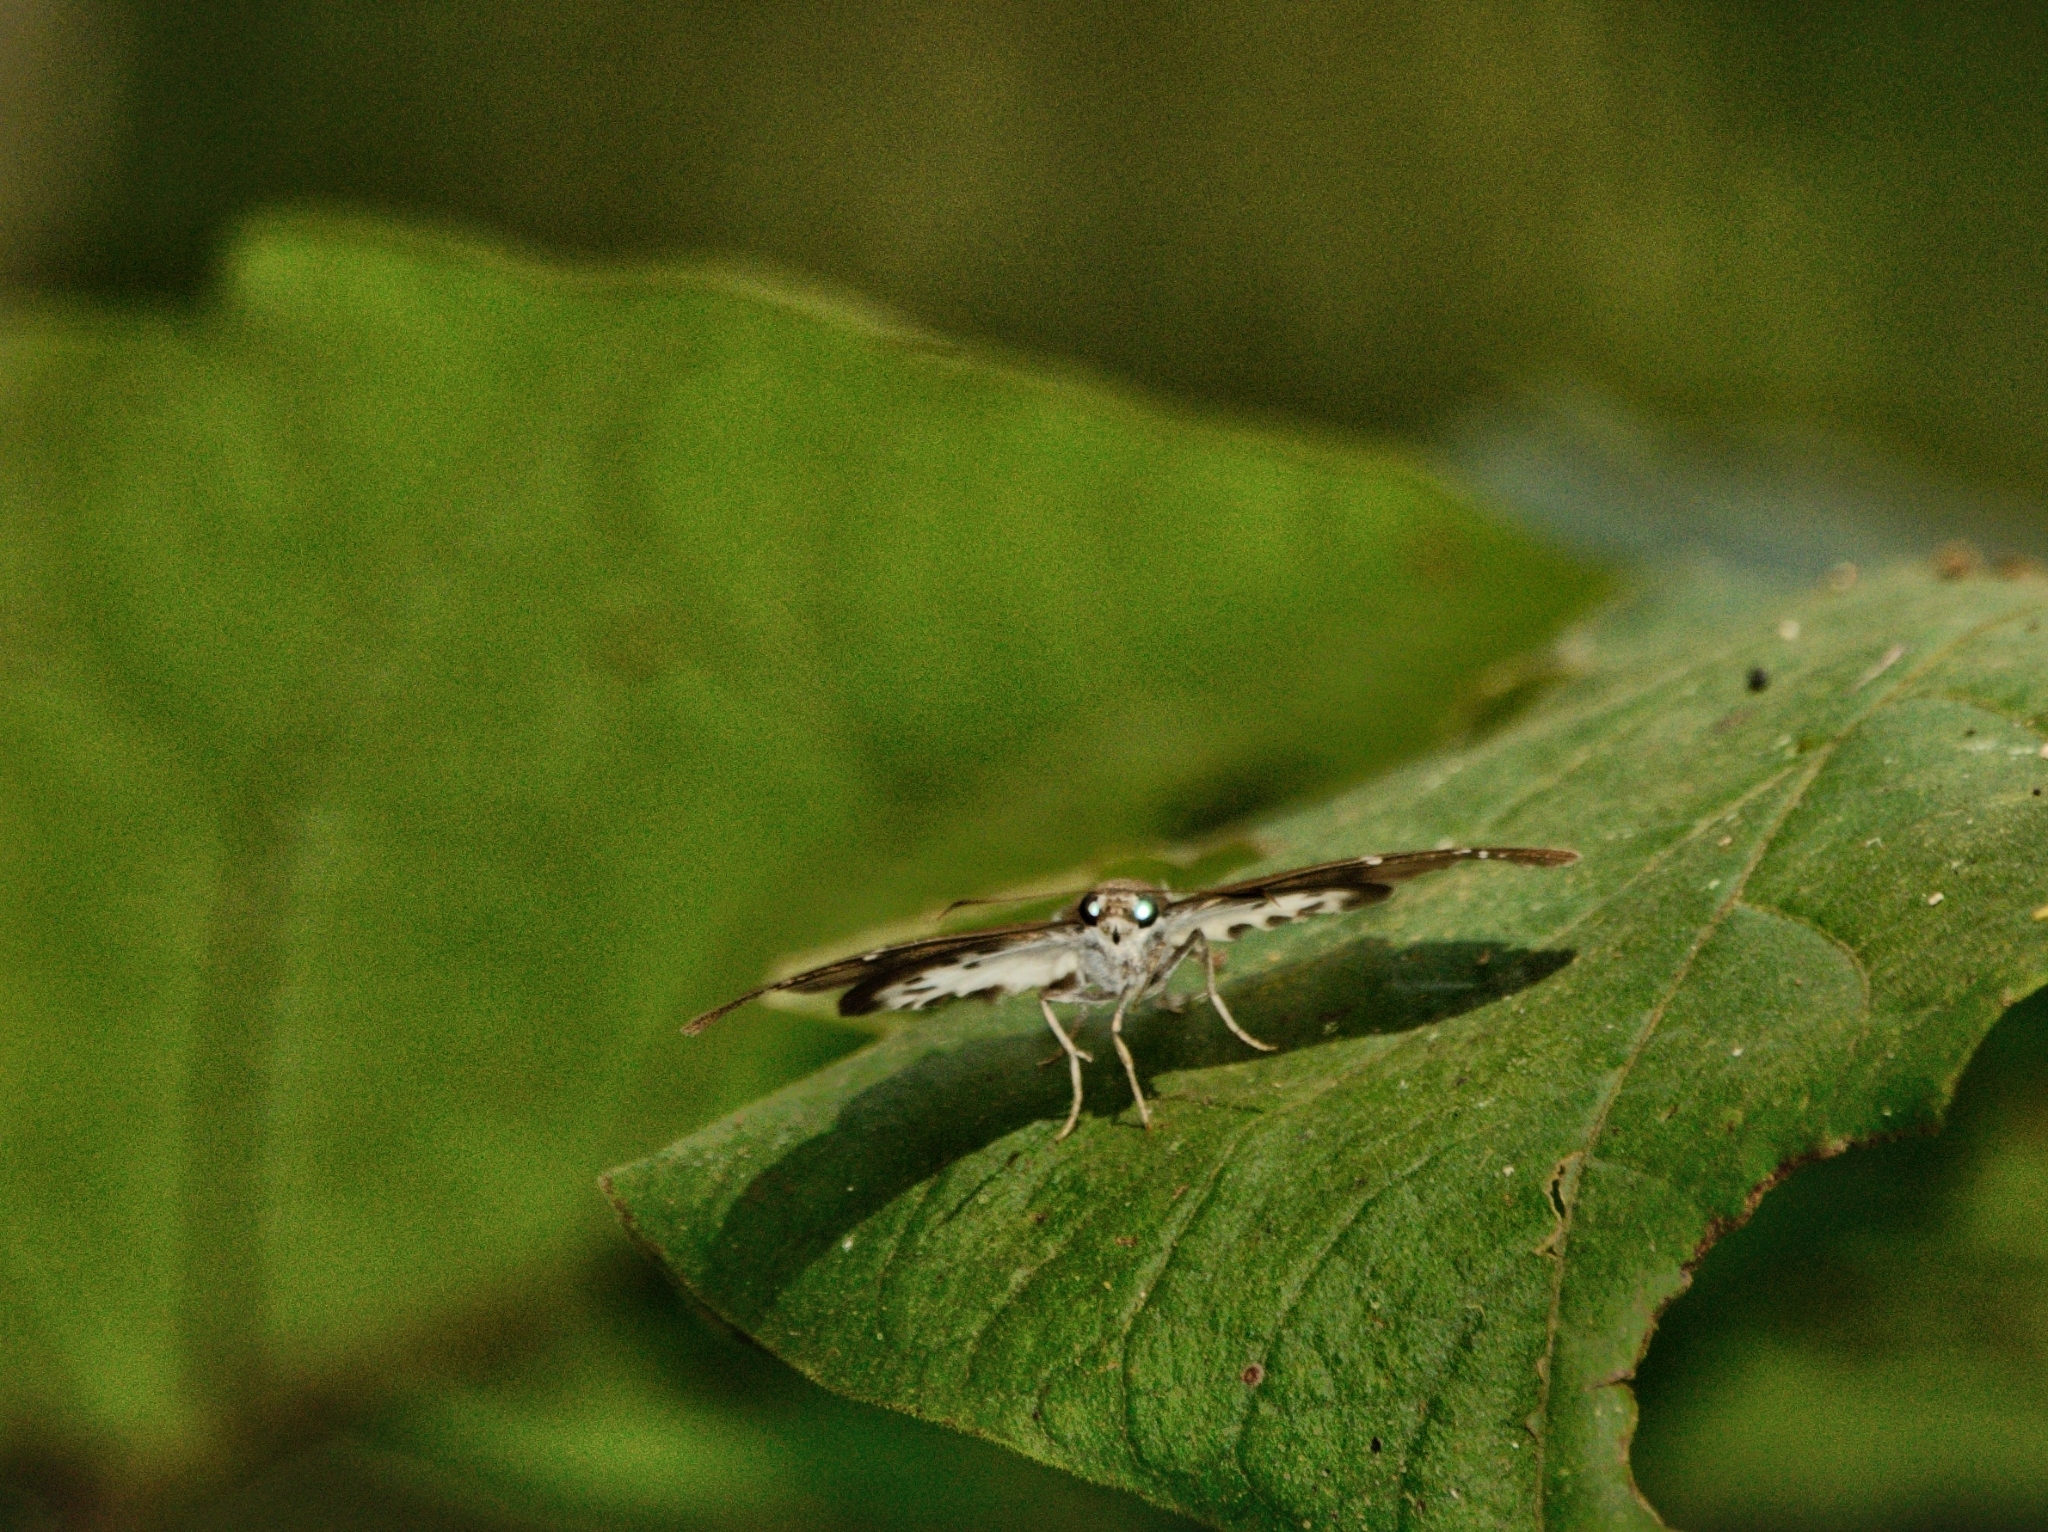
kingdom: Animalia
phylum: Arthropoda
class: Insecta
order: Lepidoptera
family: Hesperiidae
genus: Tagiades
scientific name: Tagiades litigiosa
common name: Water snow flat
